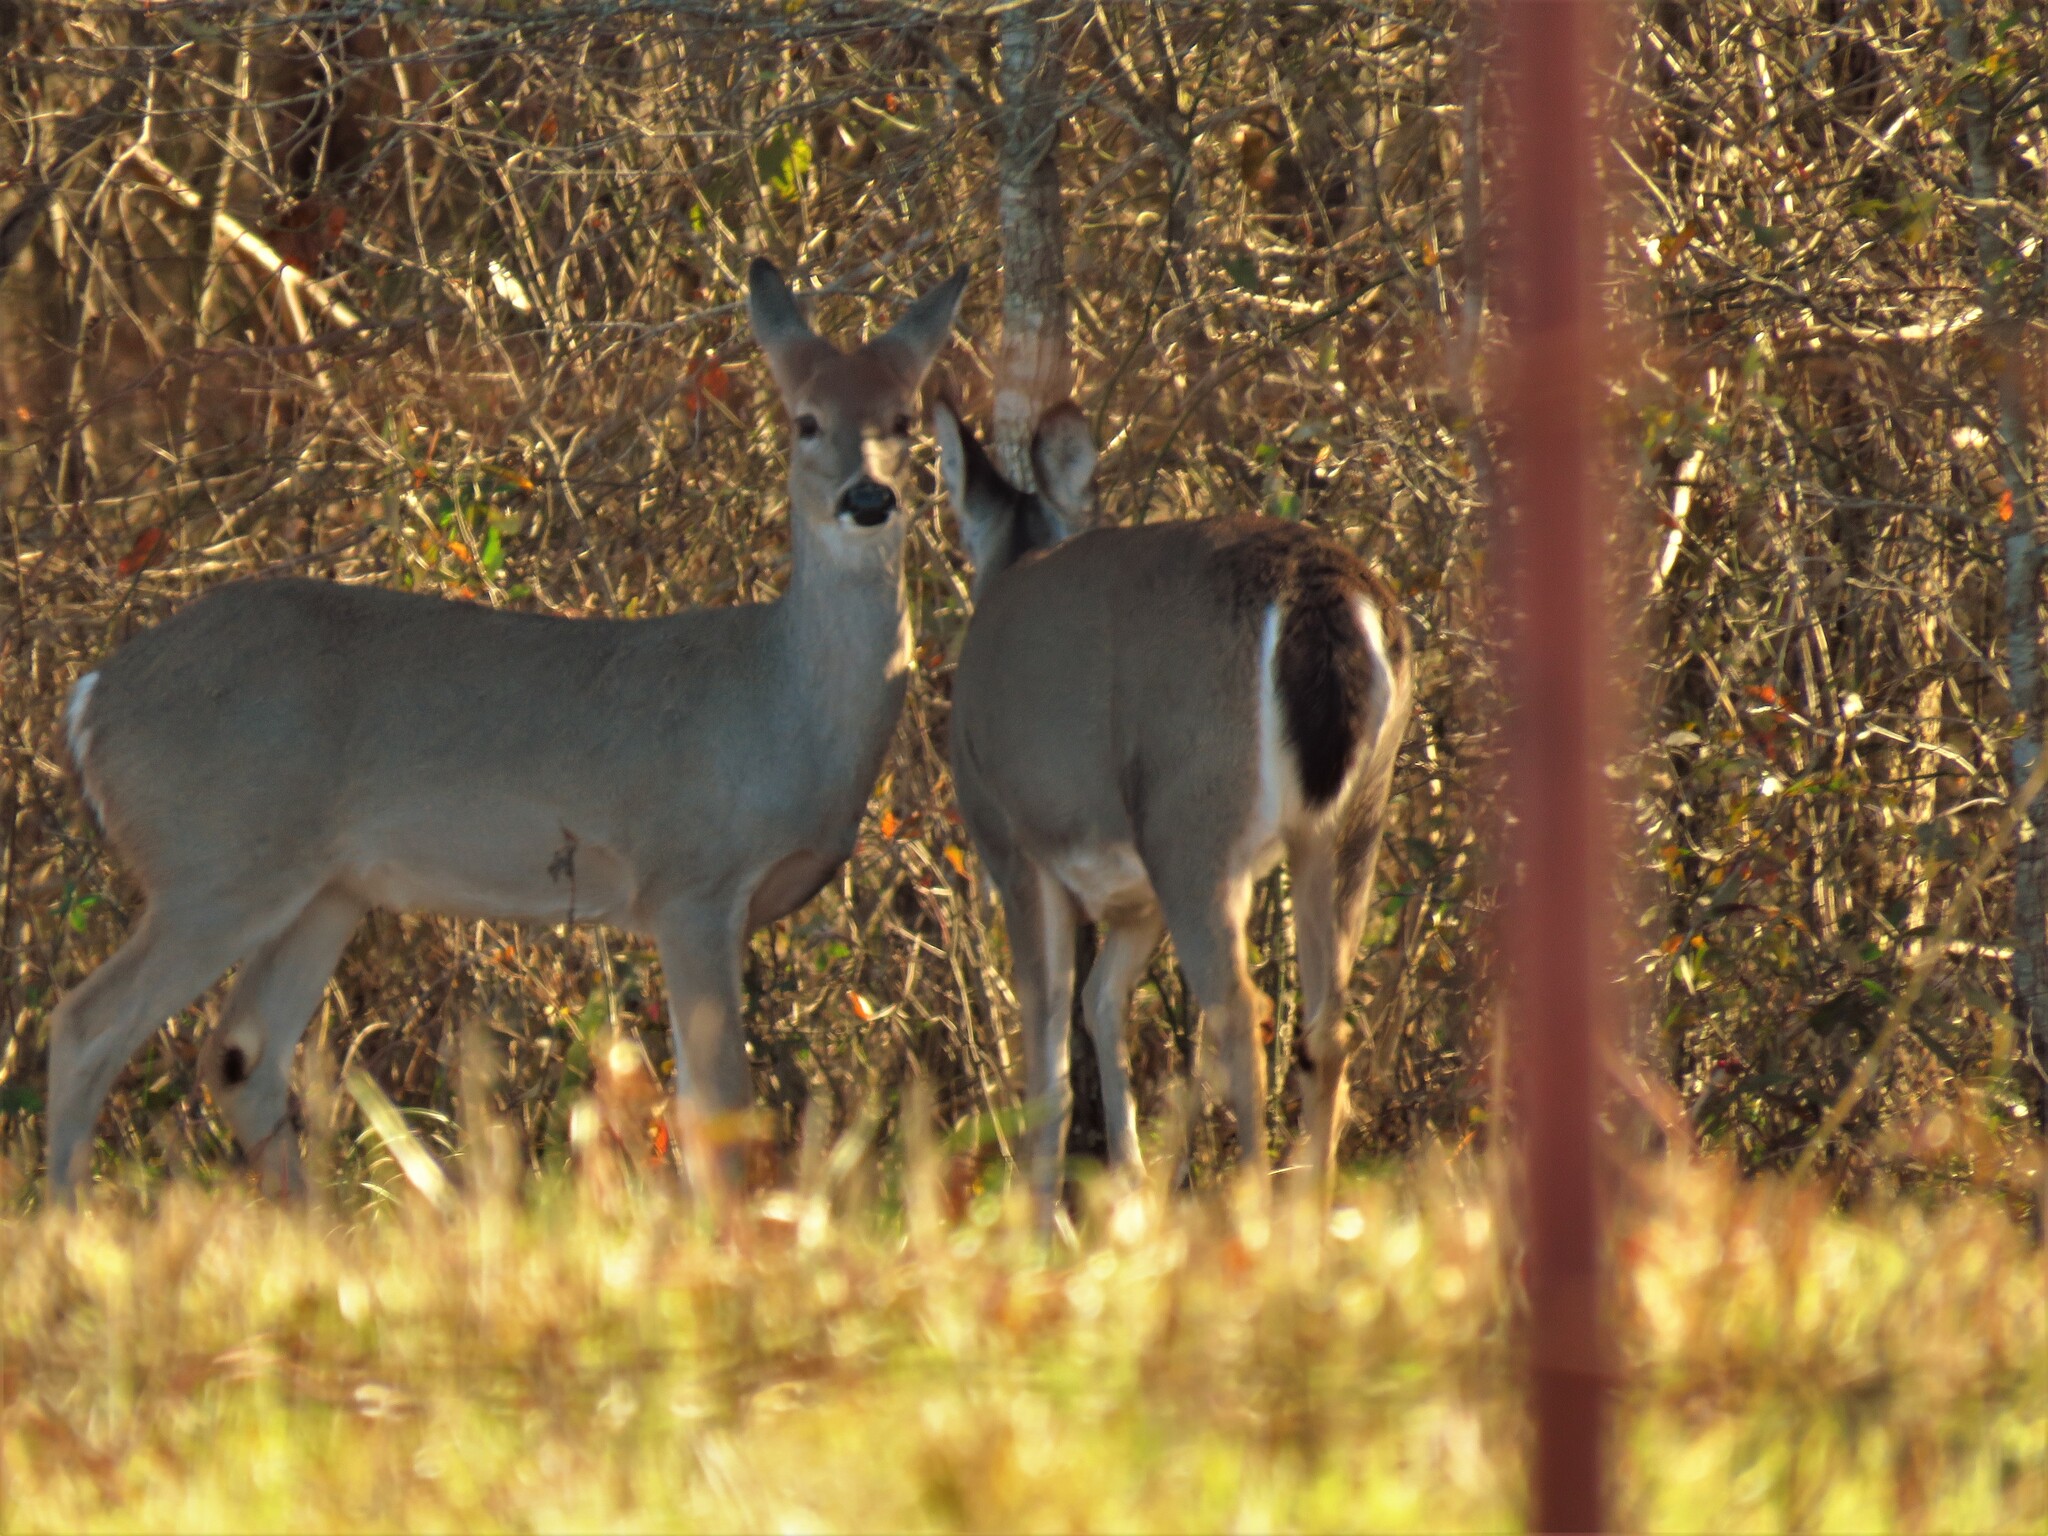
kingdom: Animalia
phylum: Chordata
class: Mammalia
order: Artiodactyla
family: Cervidae
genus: Odocoileus
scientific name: Odocoileus virginianus
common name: White-tailed deer
